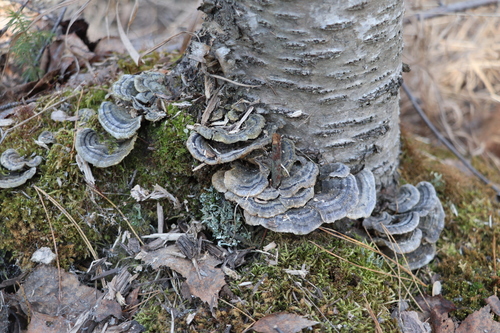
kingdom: Fungi
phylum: Basidiomycota
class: Agaricomycetes
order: Polyporales
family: Polyporaceae
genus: Trametes
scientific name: Trametes versicolor
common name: Turkeytail
